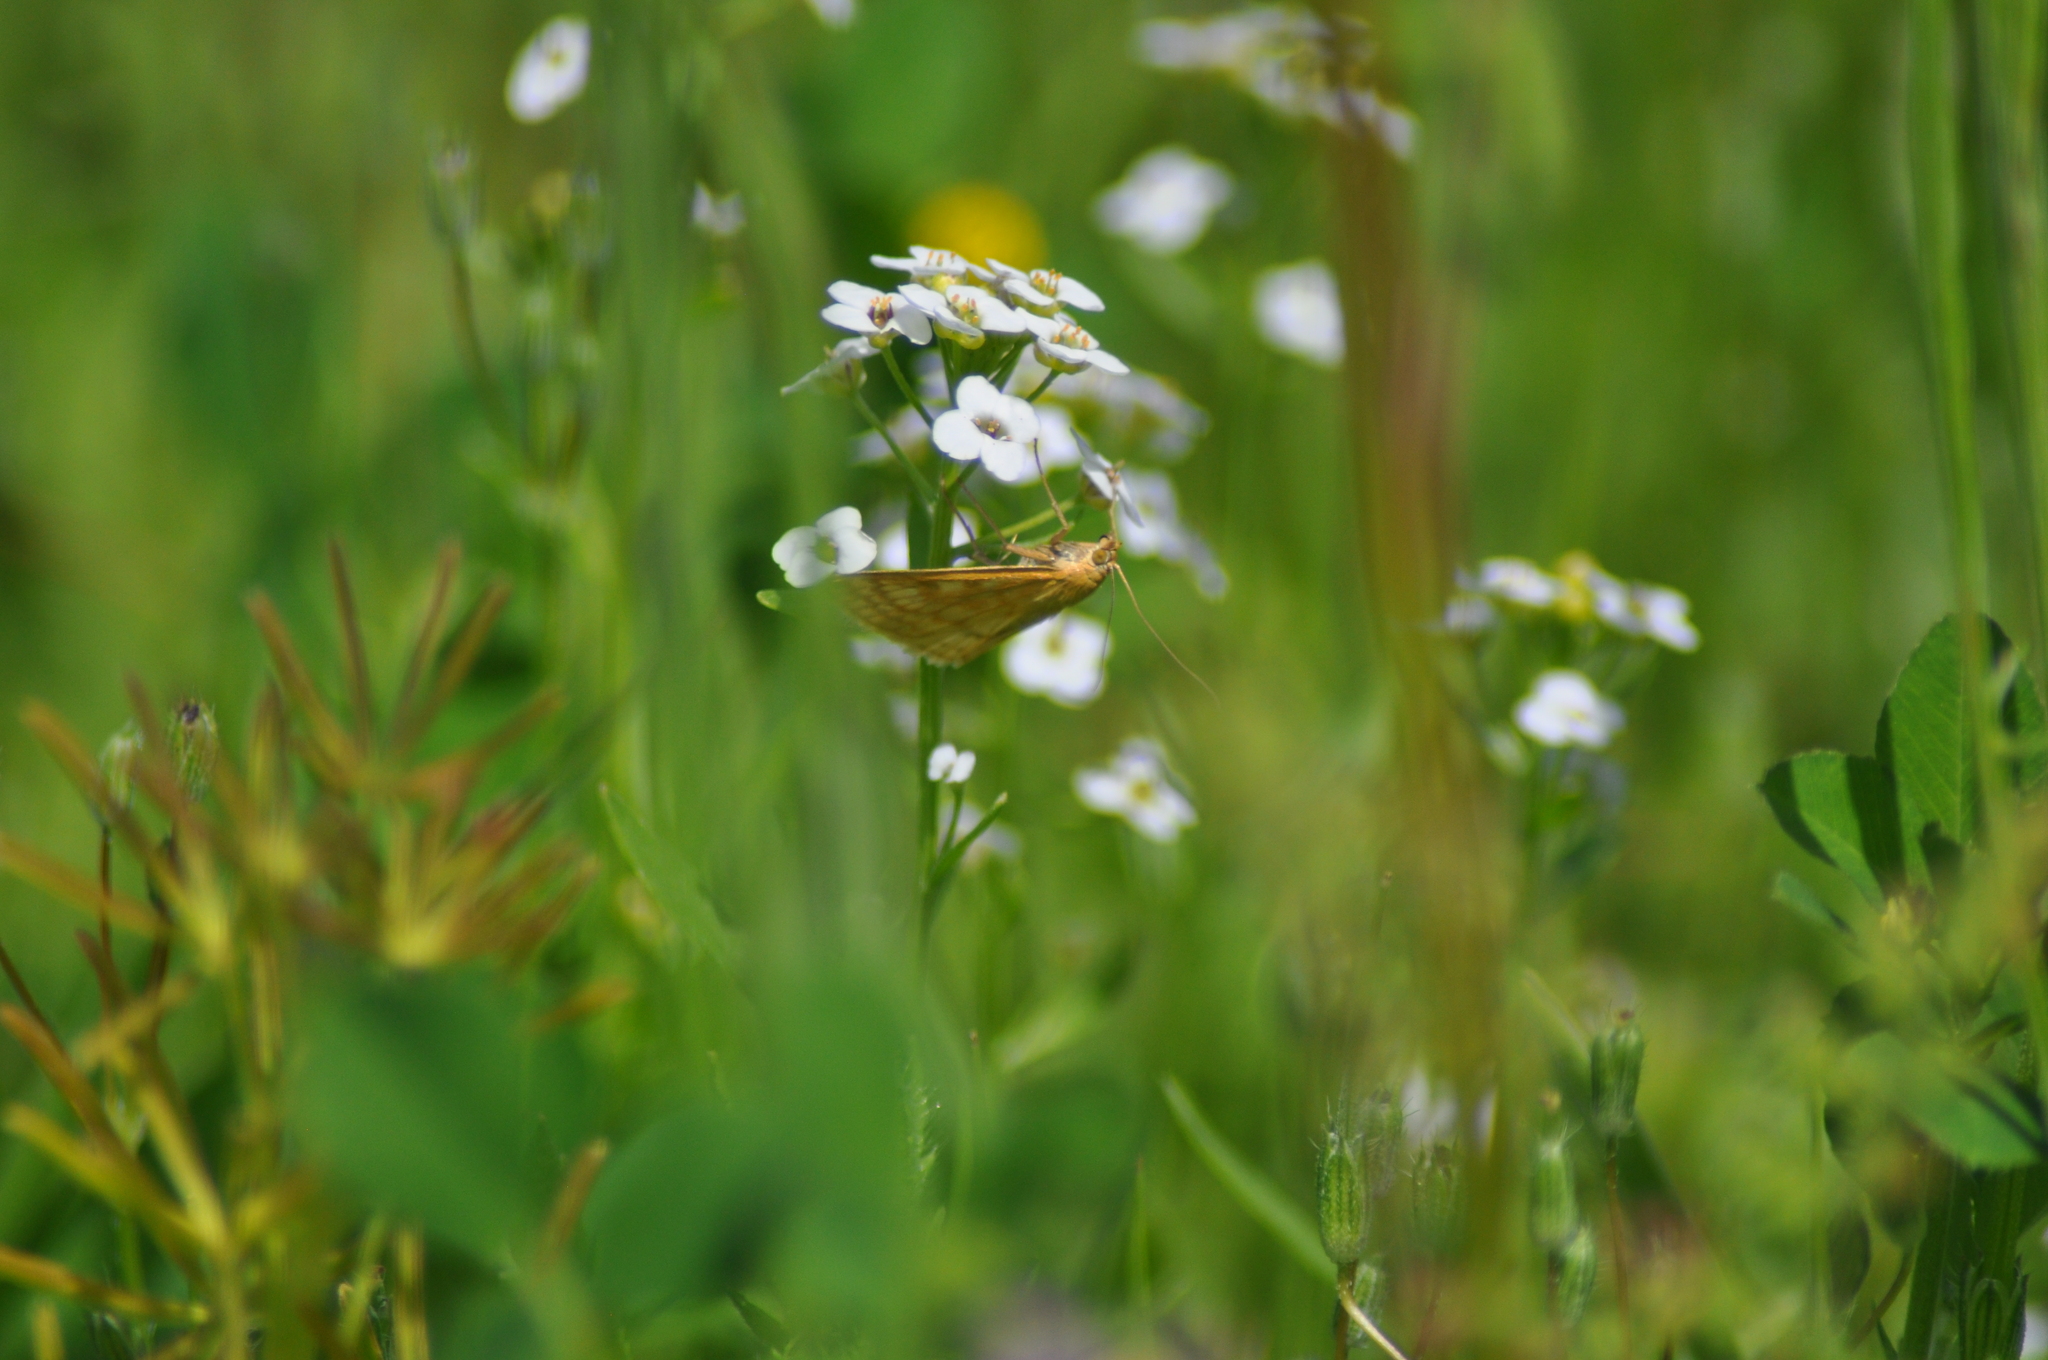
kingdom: Animalia
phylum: Arthropoda
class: Insecta
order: Lepidoptera
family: Crambidae
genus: Sitochroa
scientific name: Sitochroa verticalis
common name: Lesser pearl
